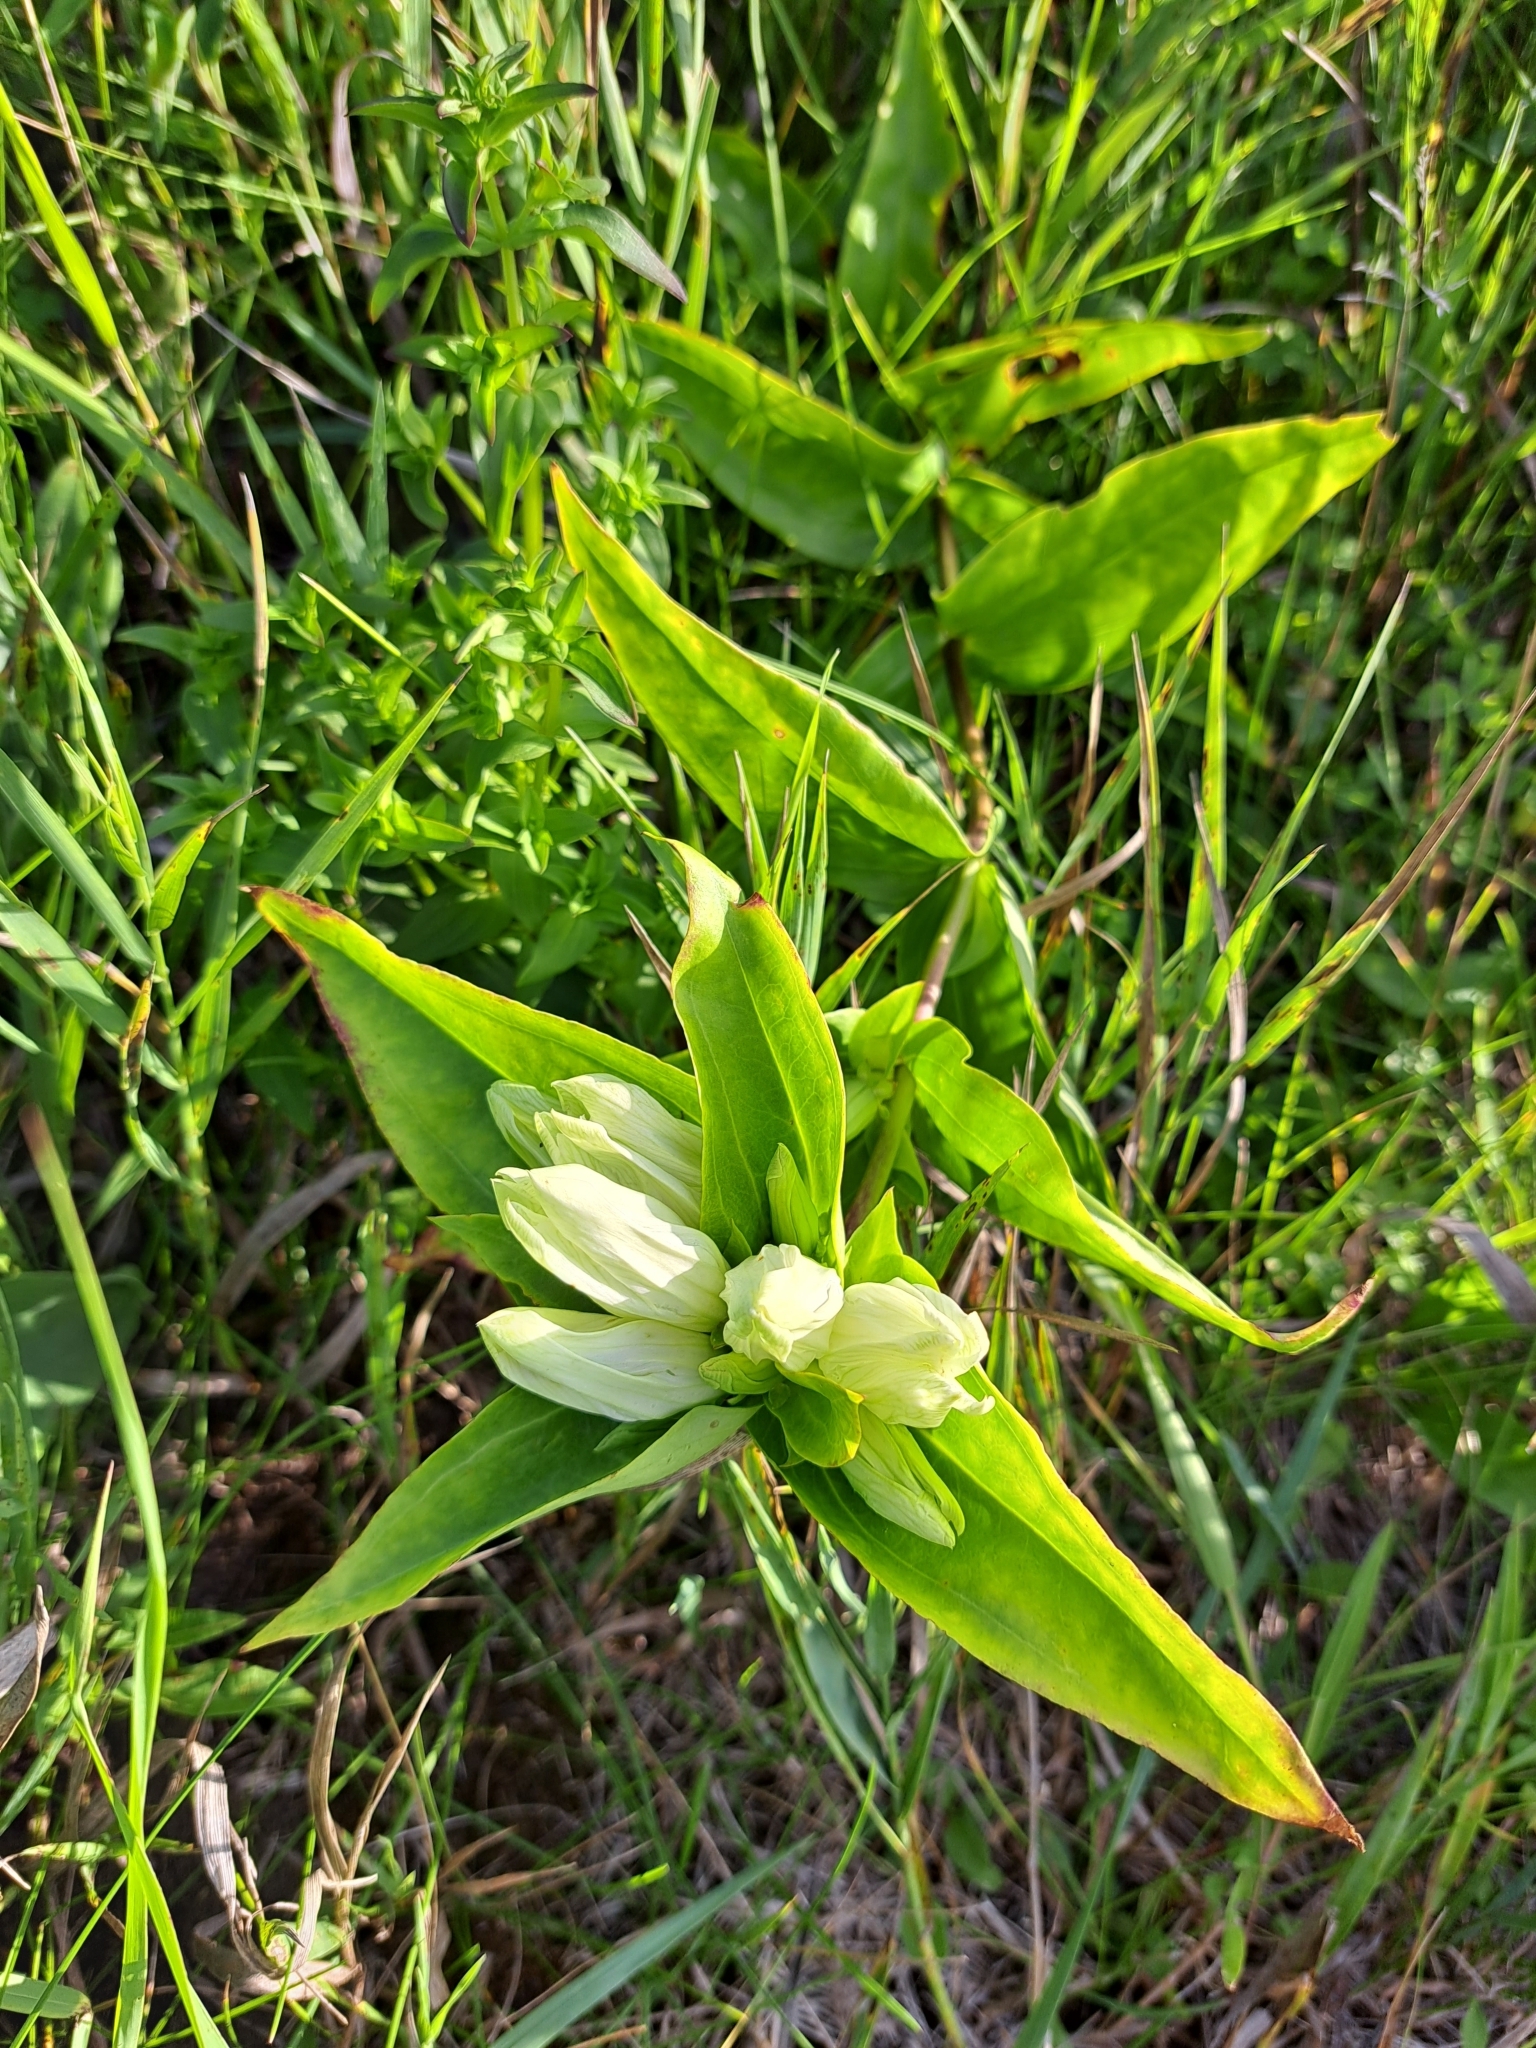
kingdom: Plantae
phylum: Tracheophyta
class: Magnoliopsida
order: Gentianales
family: Gentianaceae
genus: Gentiana
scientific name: Gentiana alba
